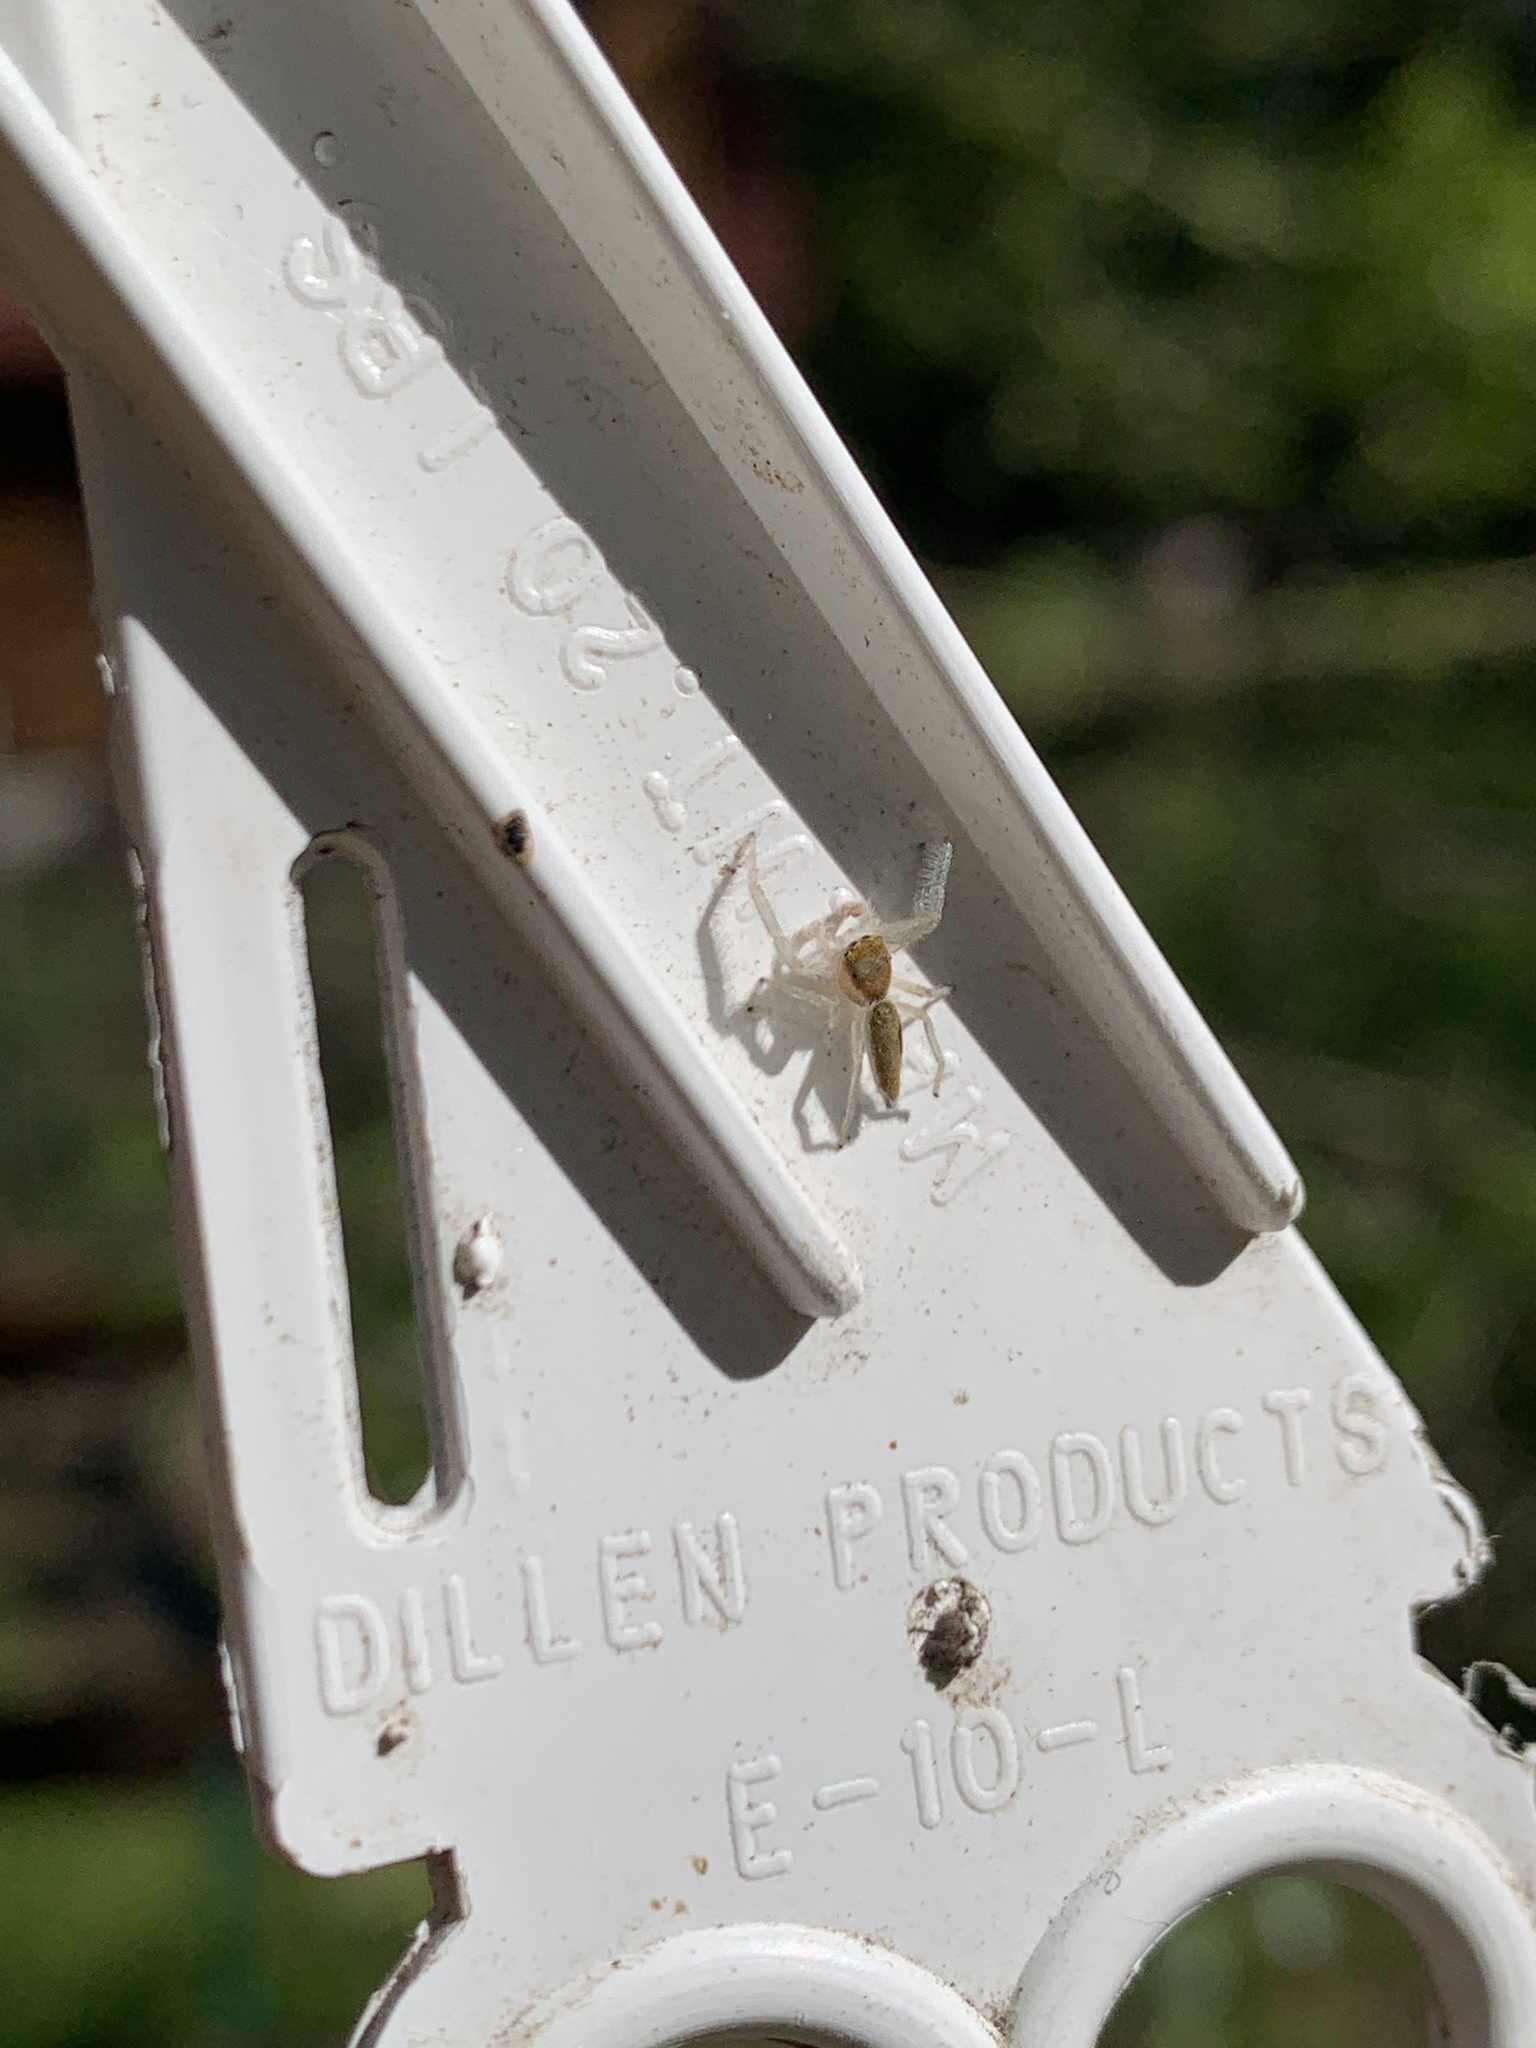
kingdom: Animalia
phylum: Arthropoda
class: Arachnida
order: Araneae
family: Salticidae
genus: Hentzia
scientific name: Hentzia mitrata
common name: White-jawed jumping spider
